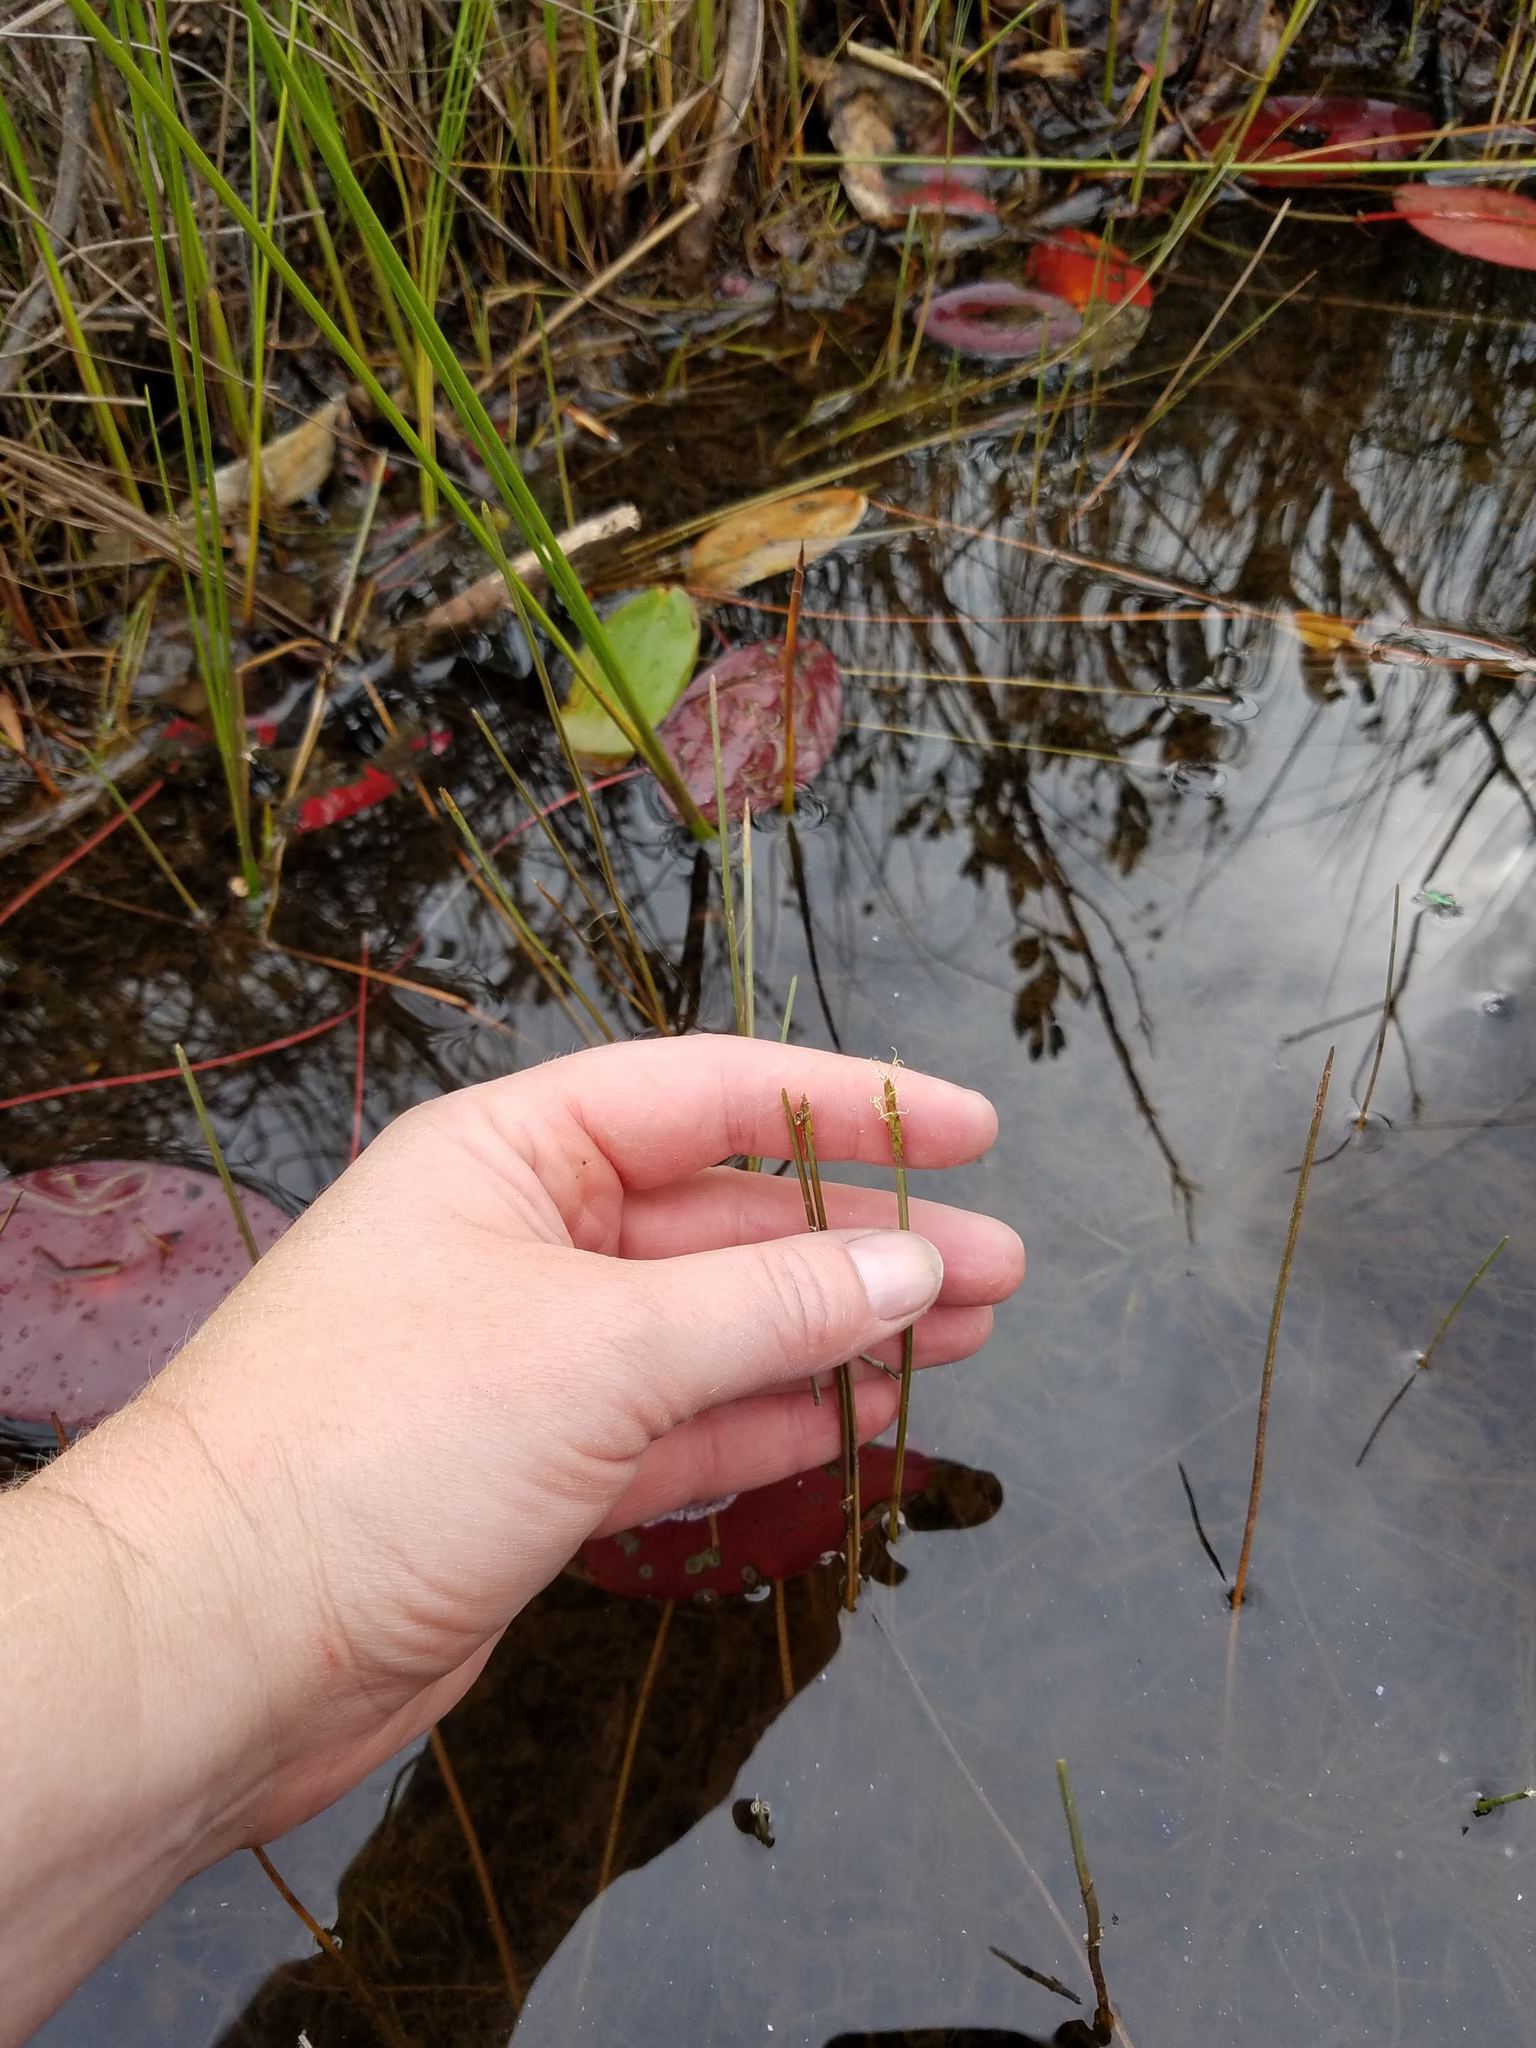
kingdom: Plantae
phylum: Tracheophyta
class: Liliopsida
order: Poales
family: Cyperaceae
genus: Eleocharis
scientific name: Eleocharis robbinsii
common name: Robbins' spikerush
